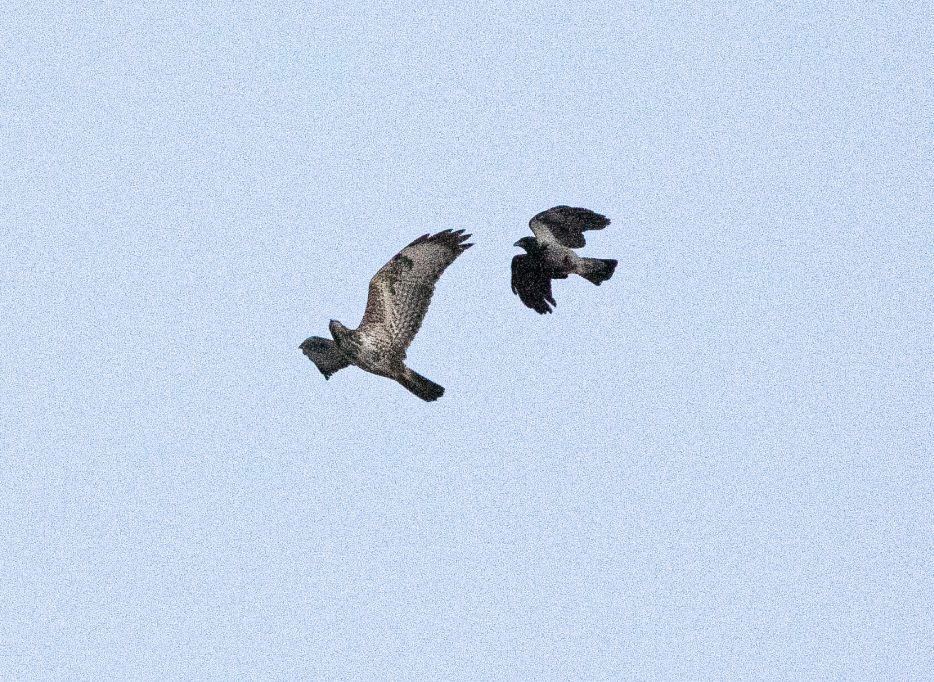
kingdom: Animalia
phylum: Chordata
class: Aves
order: Accipitriformes
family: Accipitridae
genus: Buteo
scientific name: Buteo buteo
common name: Common buzzard
